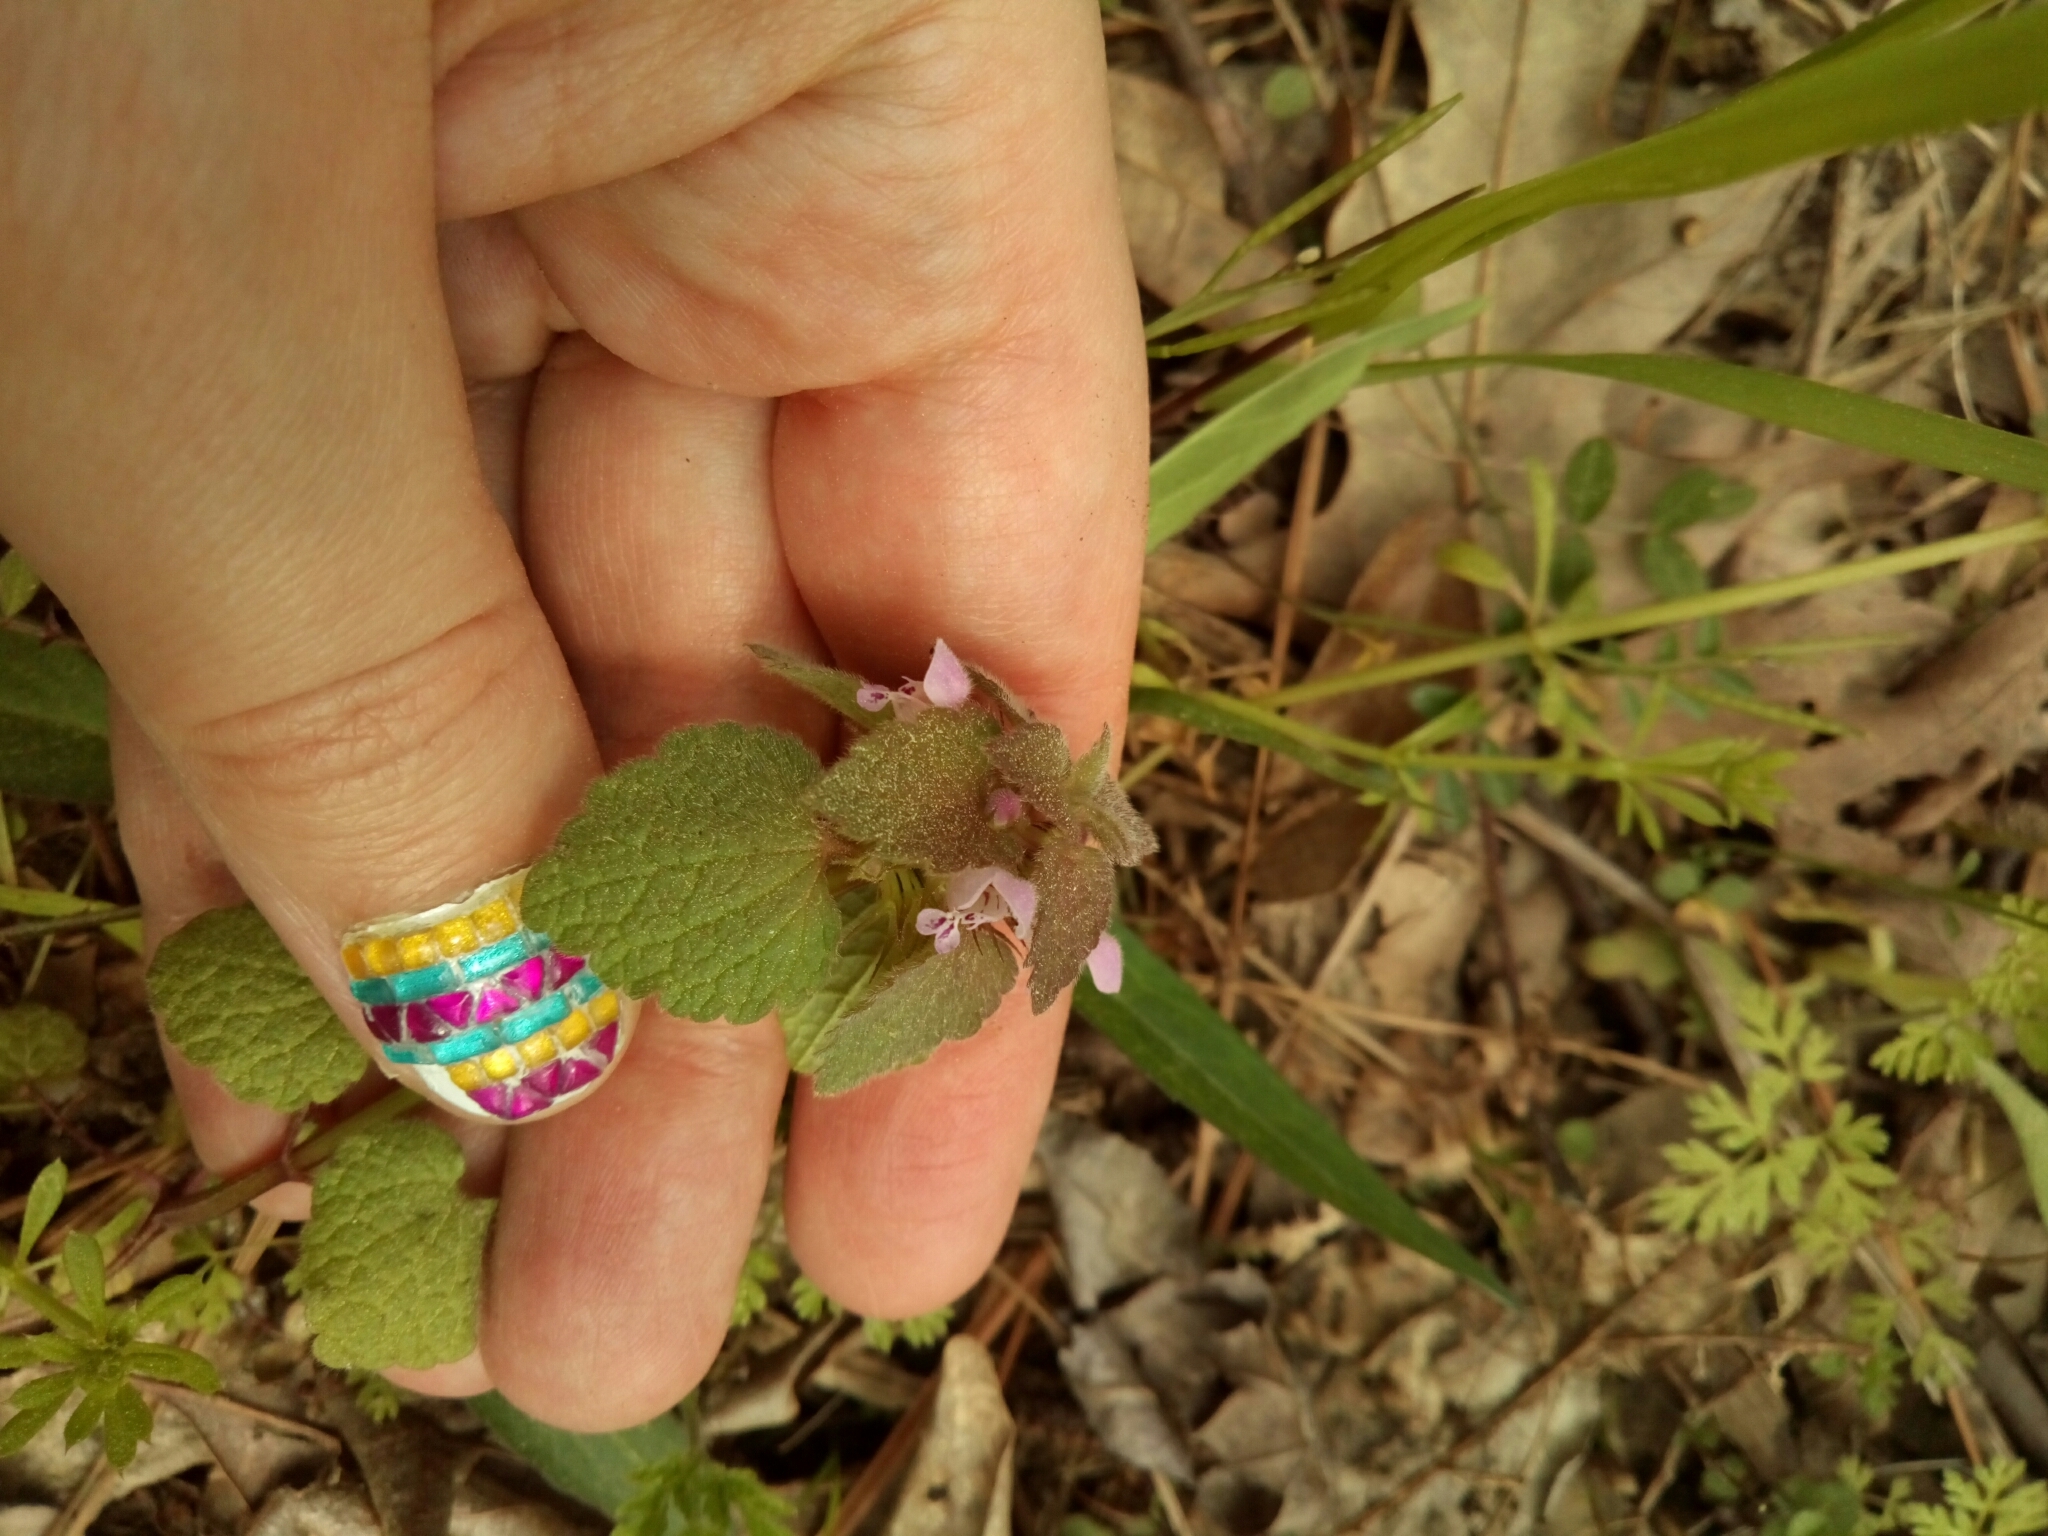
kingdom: Plantae
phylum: Tracheophyta
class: Magnoliopsida
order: Lamiales
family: Lamiaceae
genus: Lamium
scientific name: Lamium purpureum
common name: Red dead-nettle
